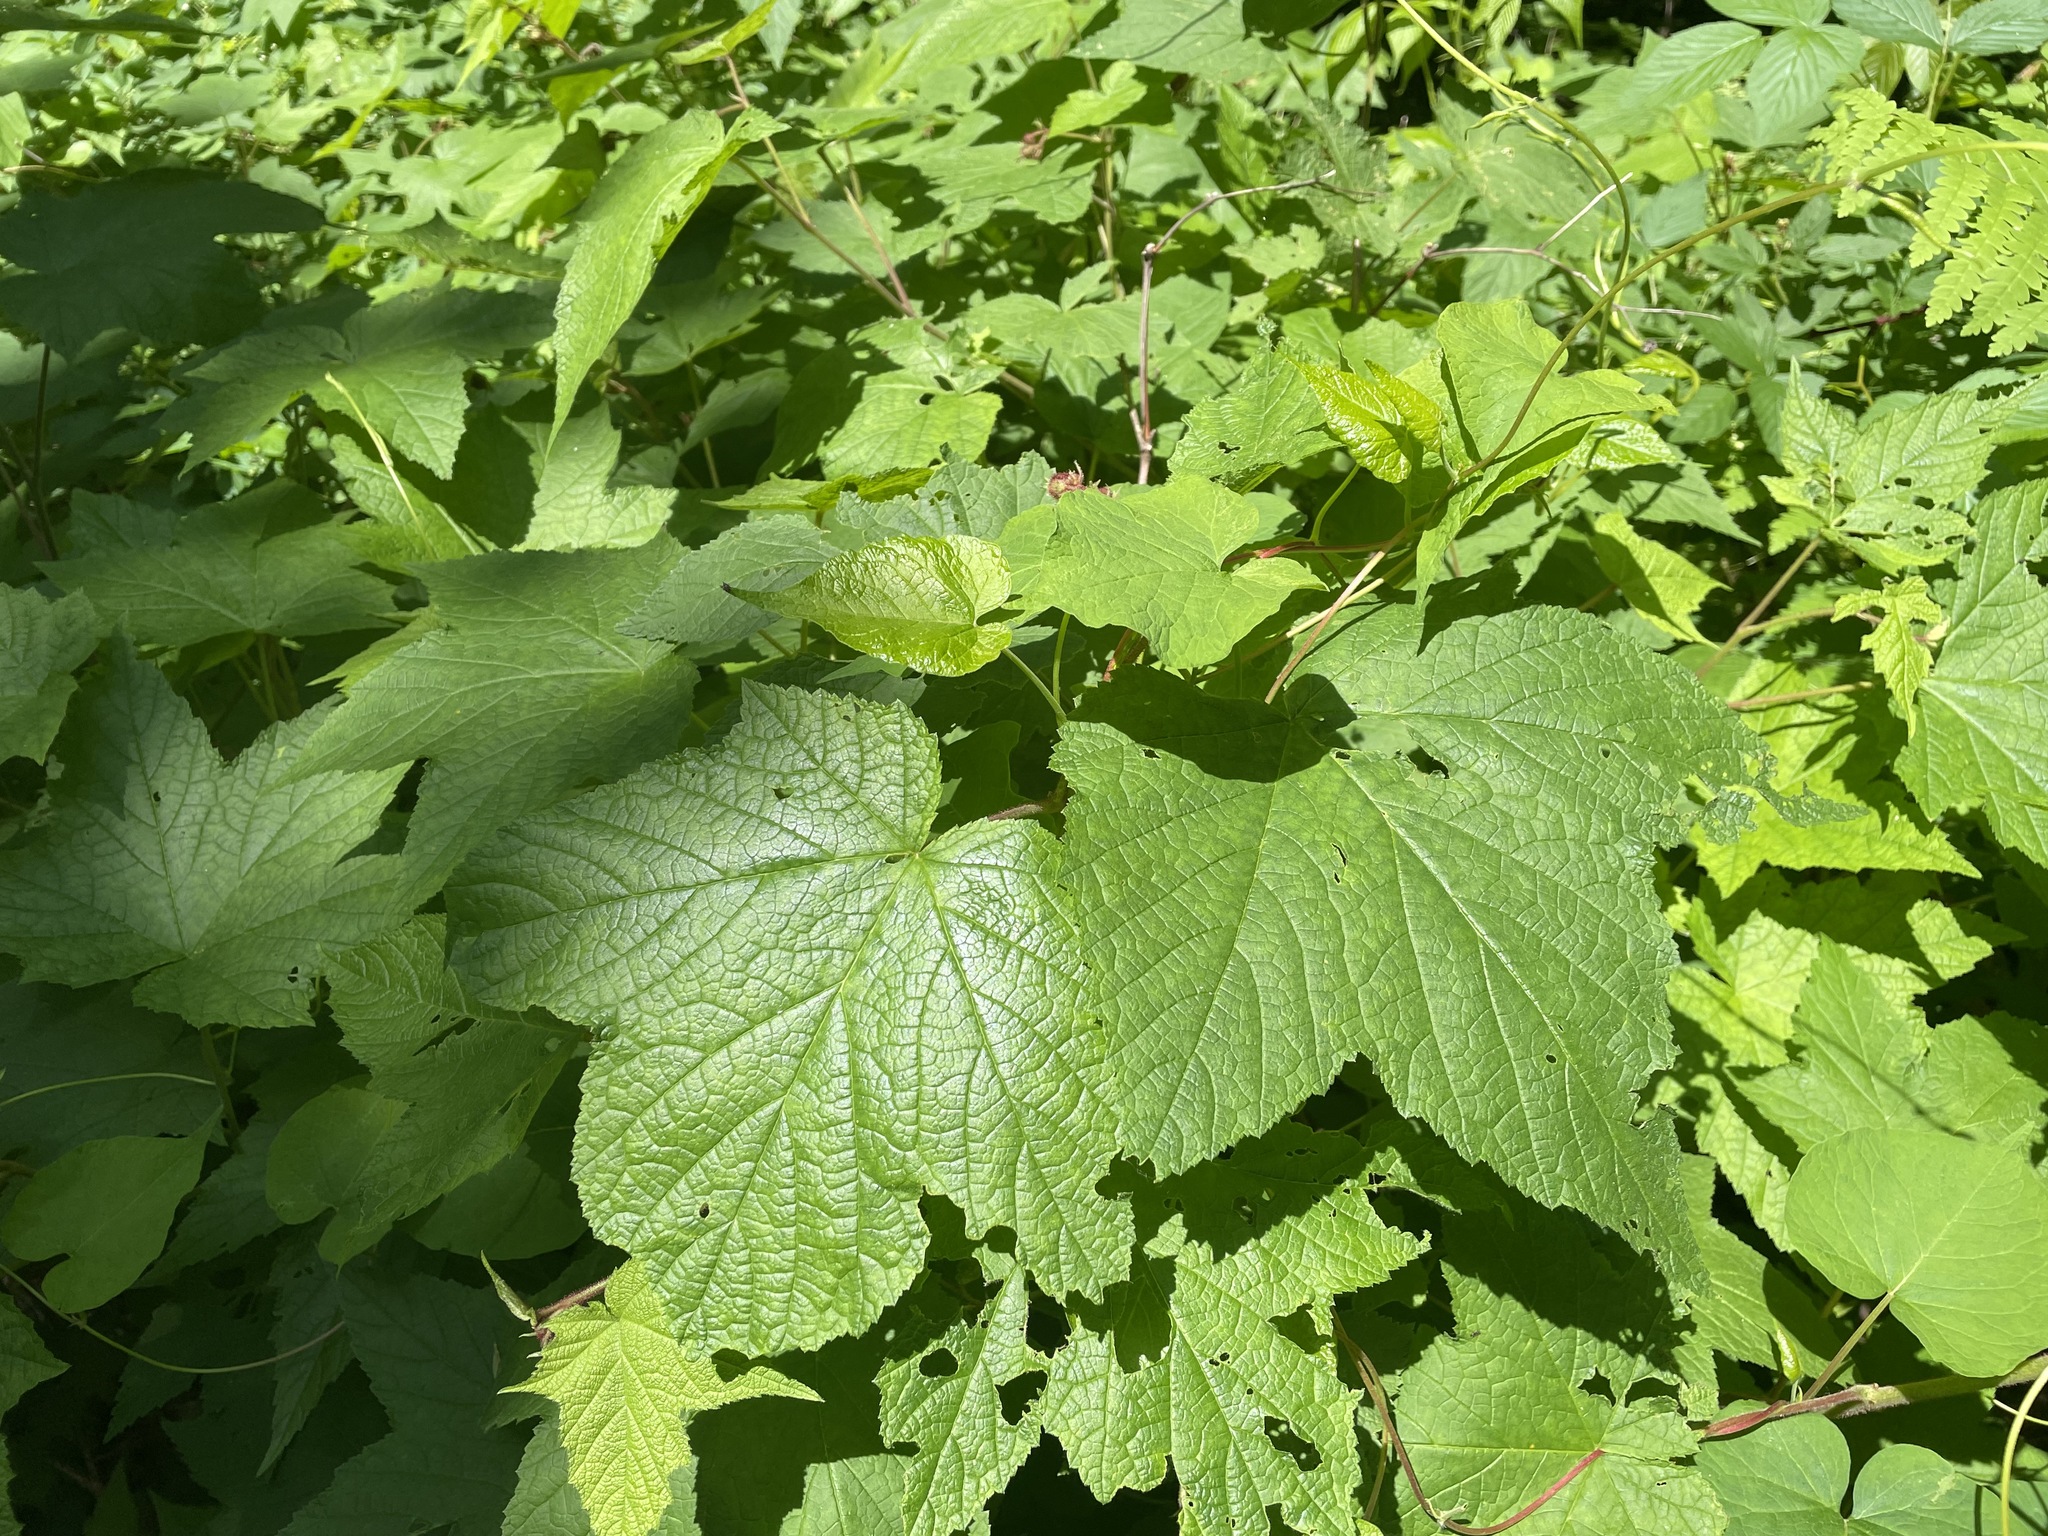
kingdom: Plantae
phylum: Tracheophyta
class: Magnoliopsida
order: Rosales
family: Rosaceae
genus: Rubus
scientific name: Rubus odoratus
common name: Purple-flowered raspberry
